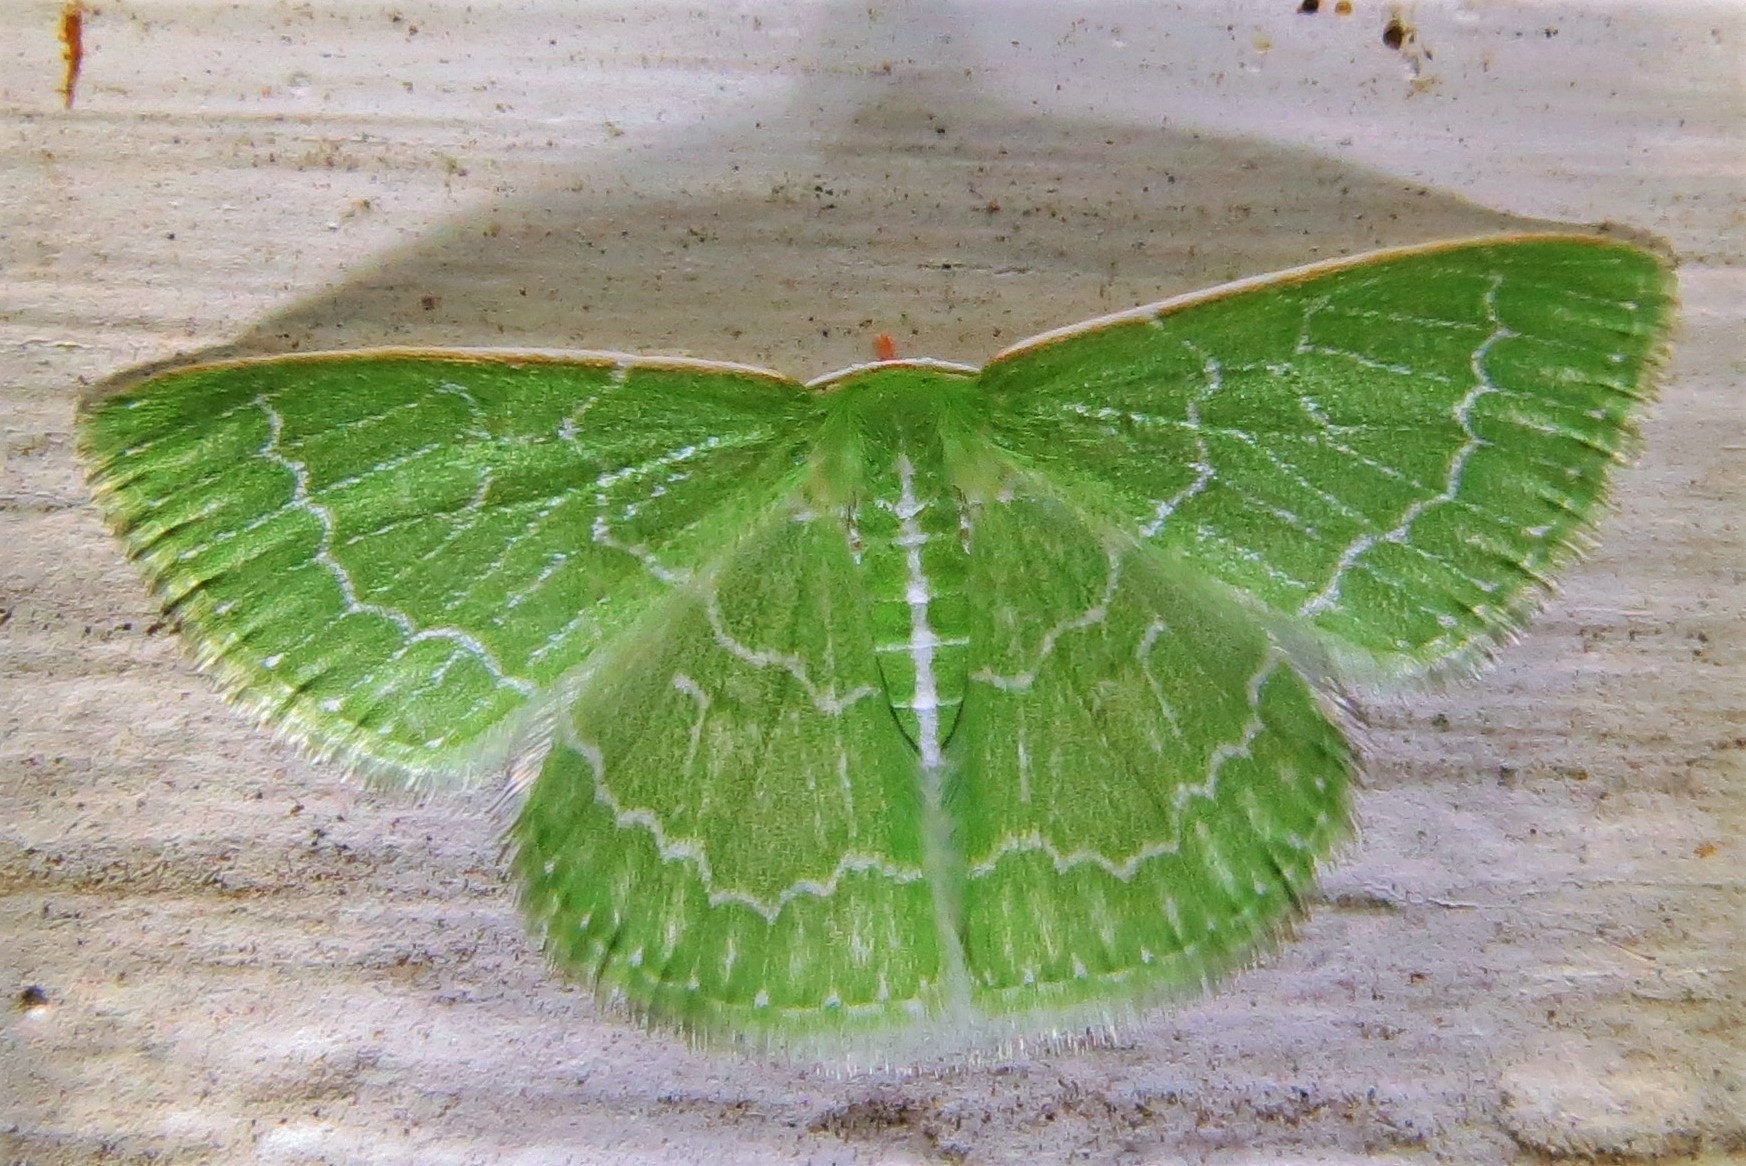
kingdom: Animalia
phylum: Arthropoda
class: Insecta
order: Lepidoptera
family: Geometridae
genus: Synchlora
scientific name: Synchlora frondaria
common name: Southern emerald
